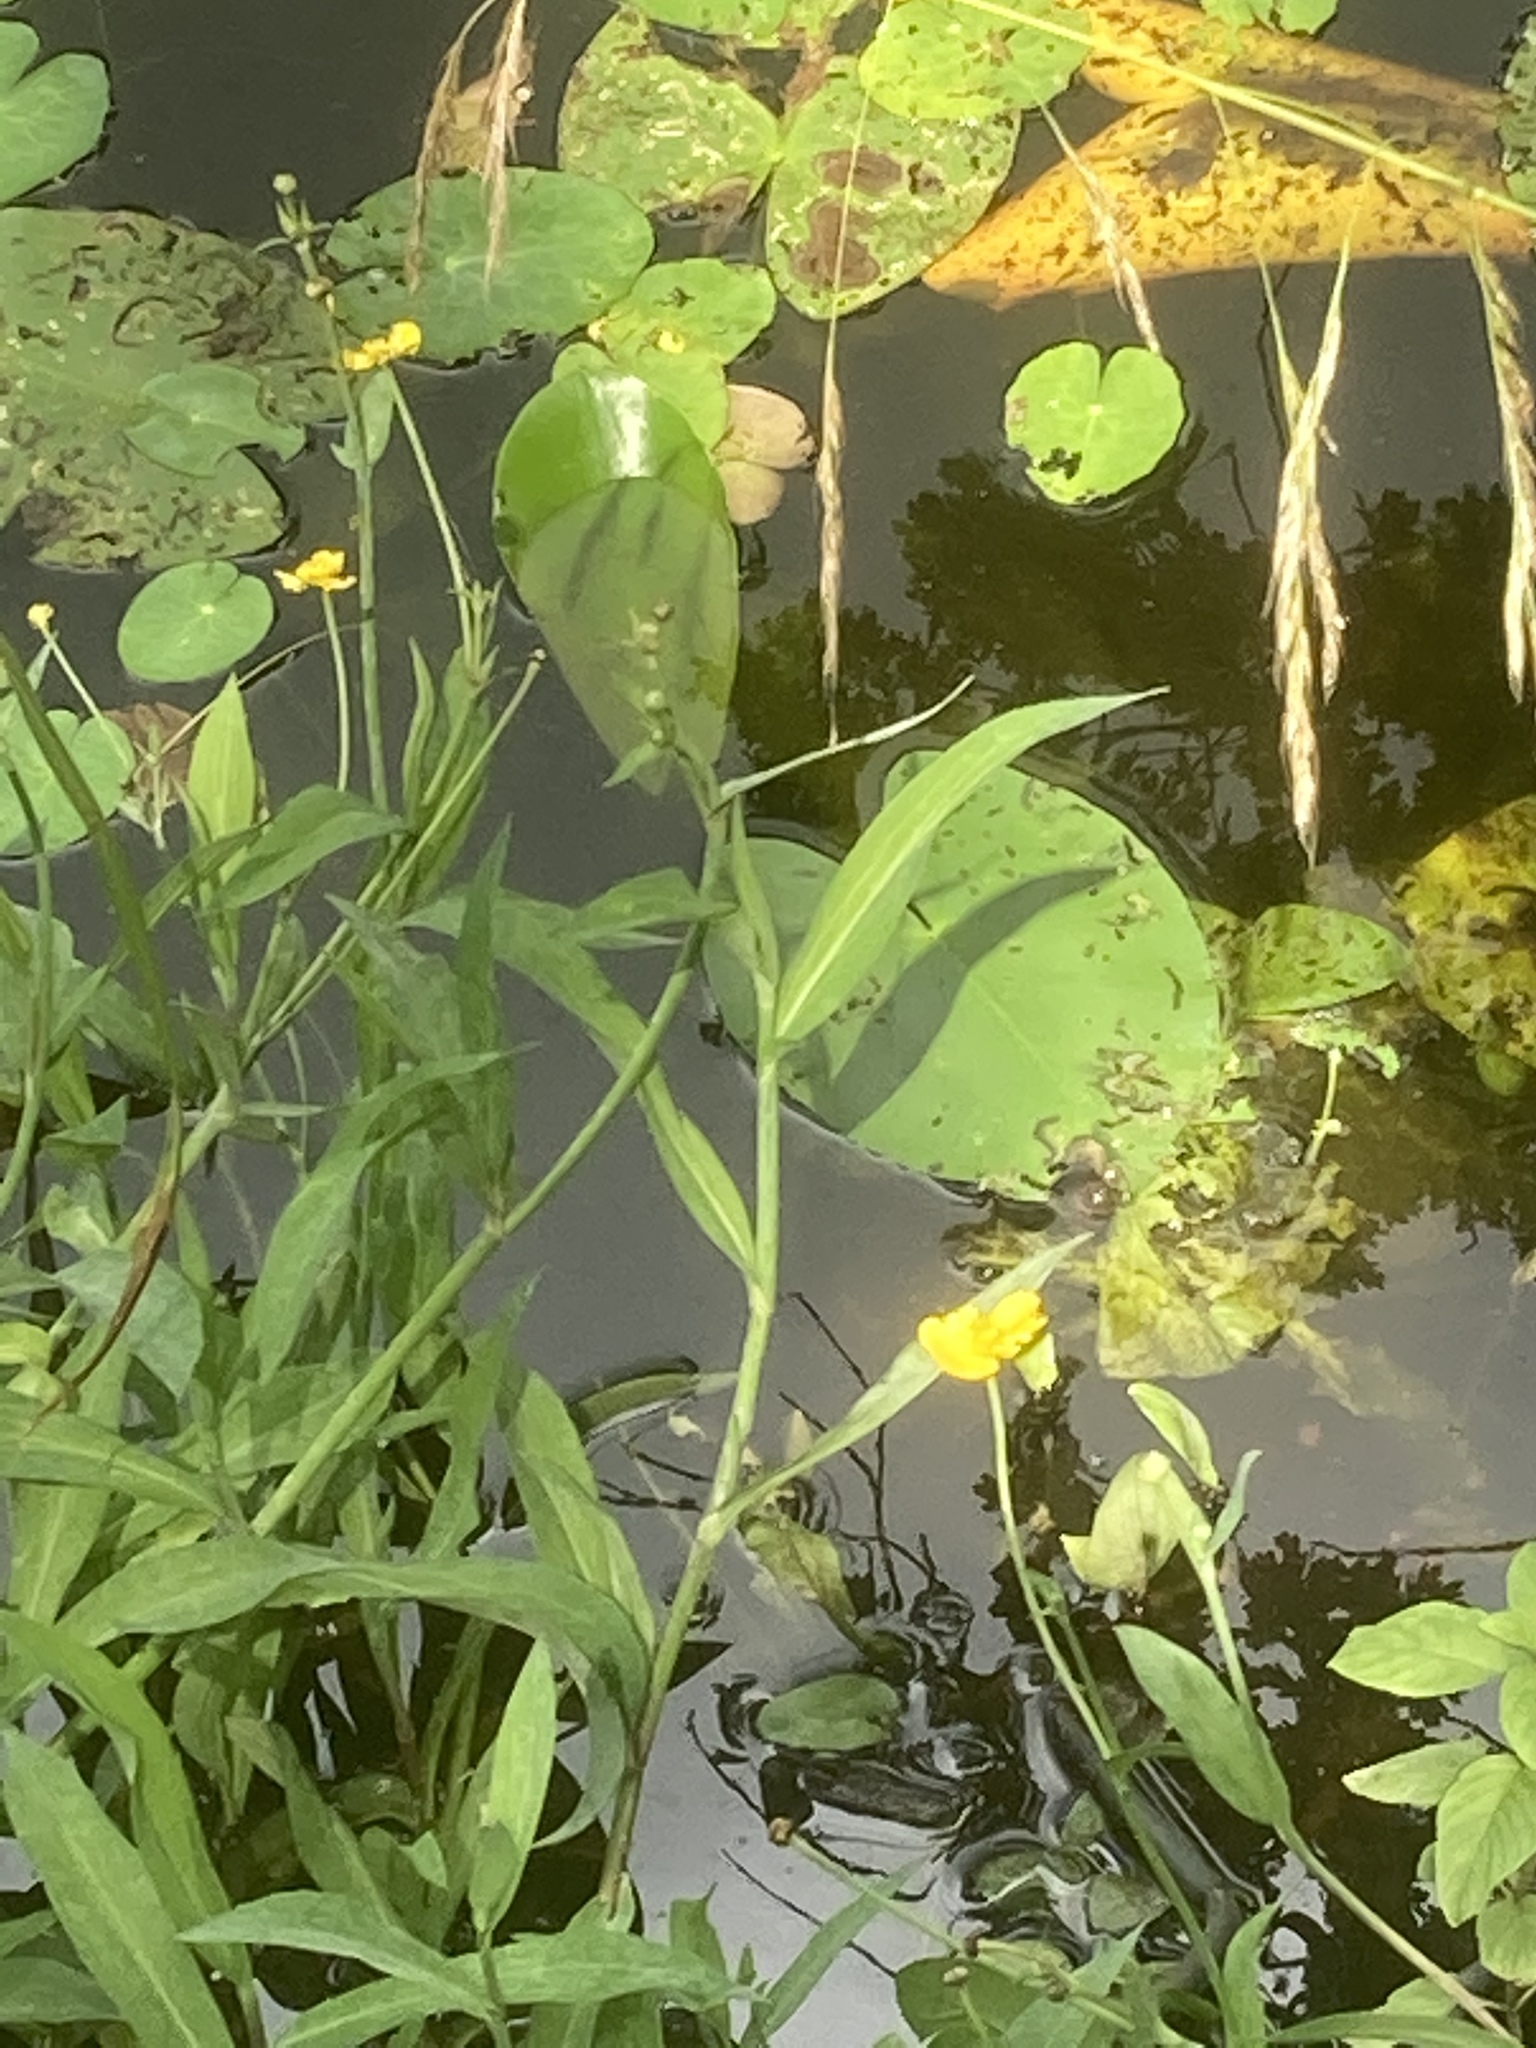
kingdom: Plantae
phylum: Tracheophyta
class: Magnoliopsida
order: Ranunculales
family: Ranunculaceae
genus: Ranunculus
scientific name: Ranunculus lingua
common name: Greater spearwort
